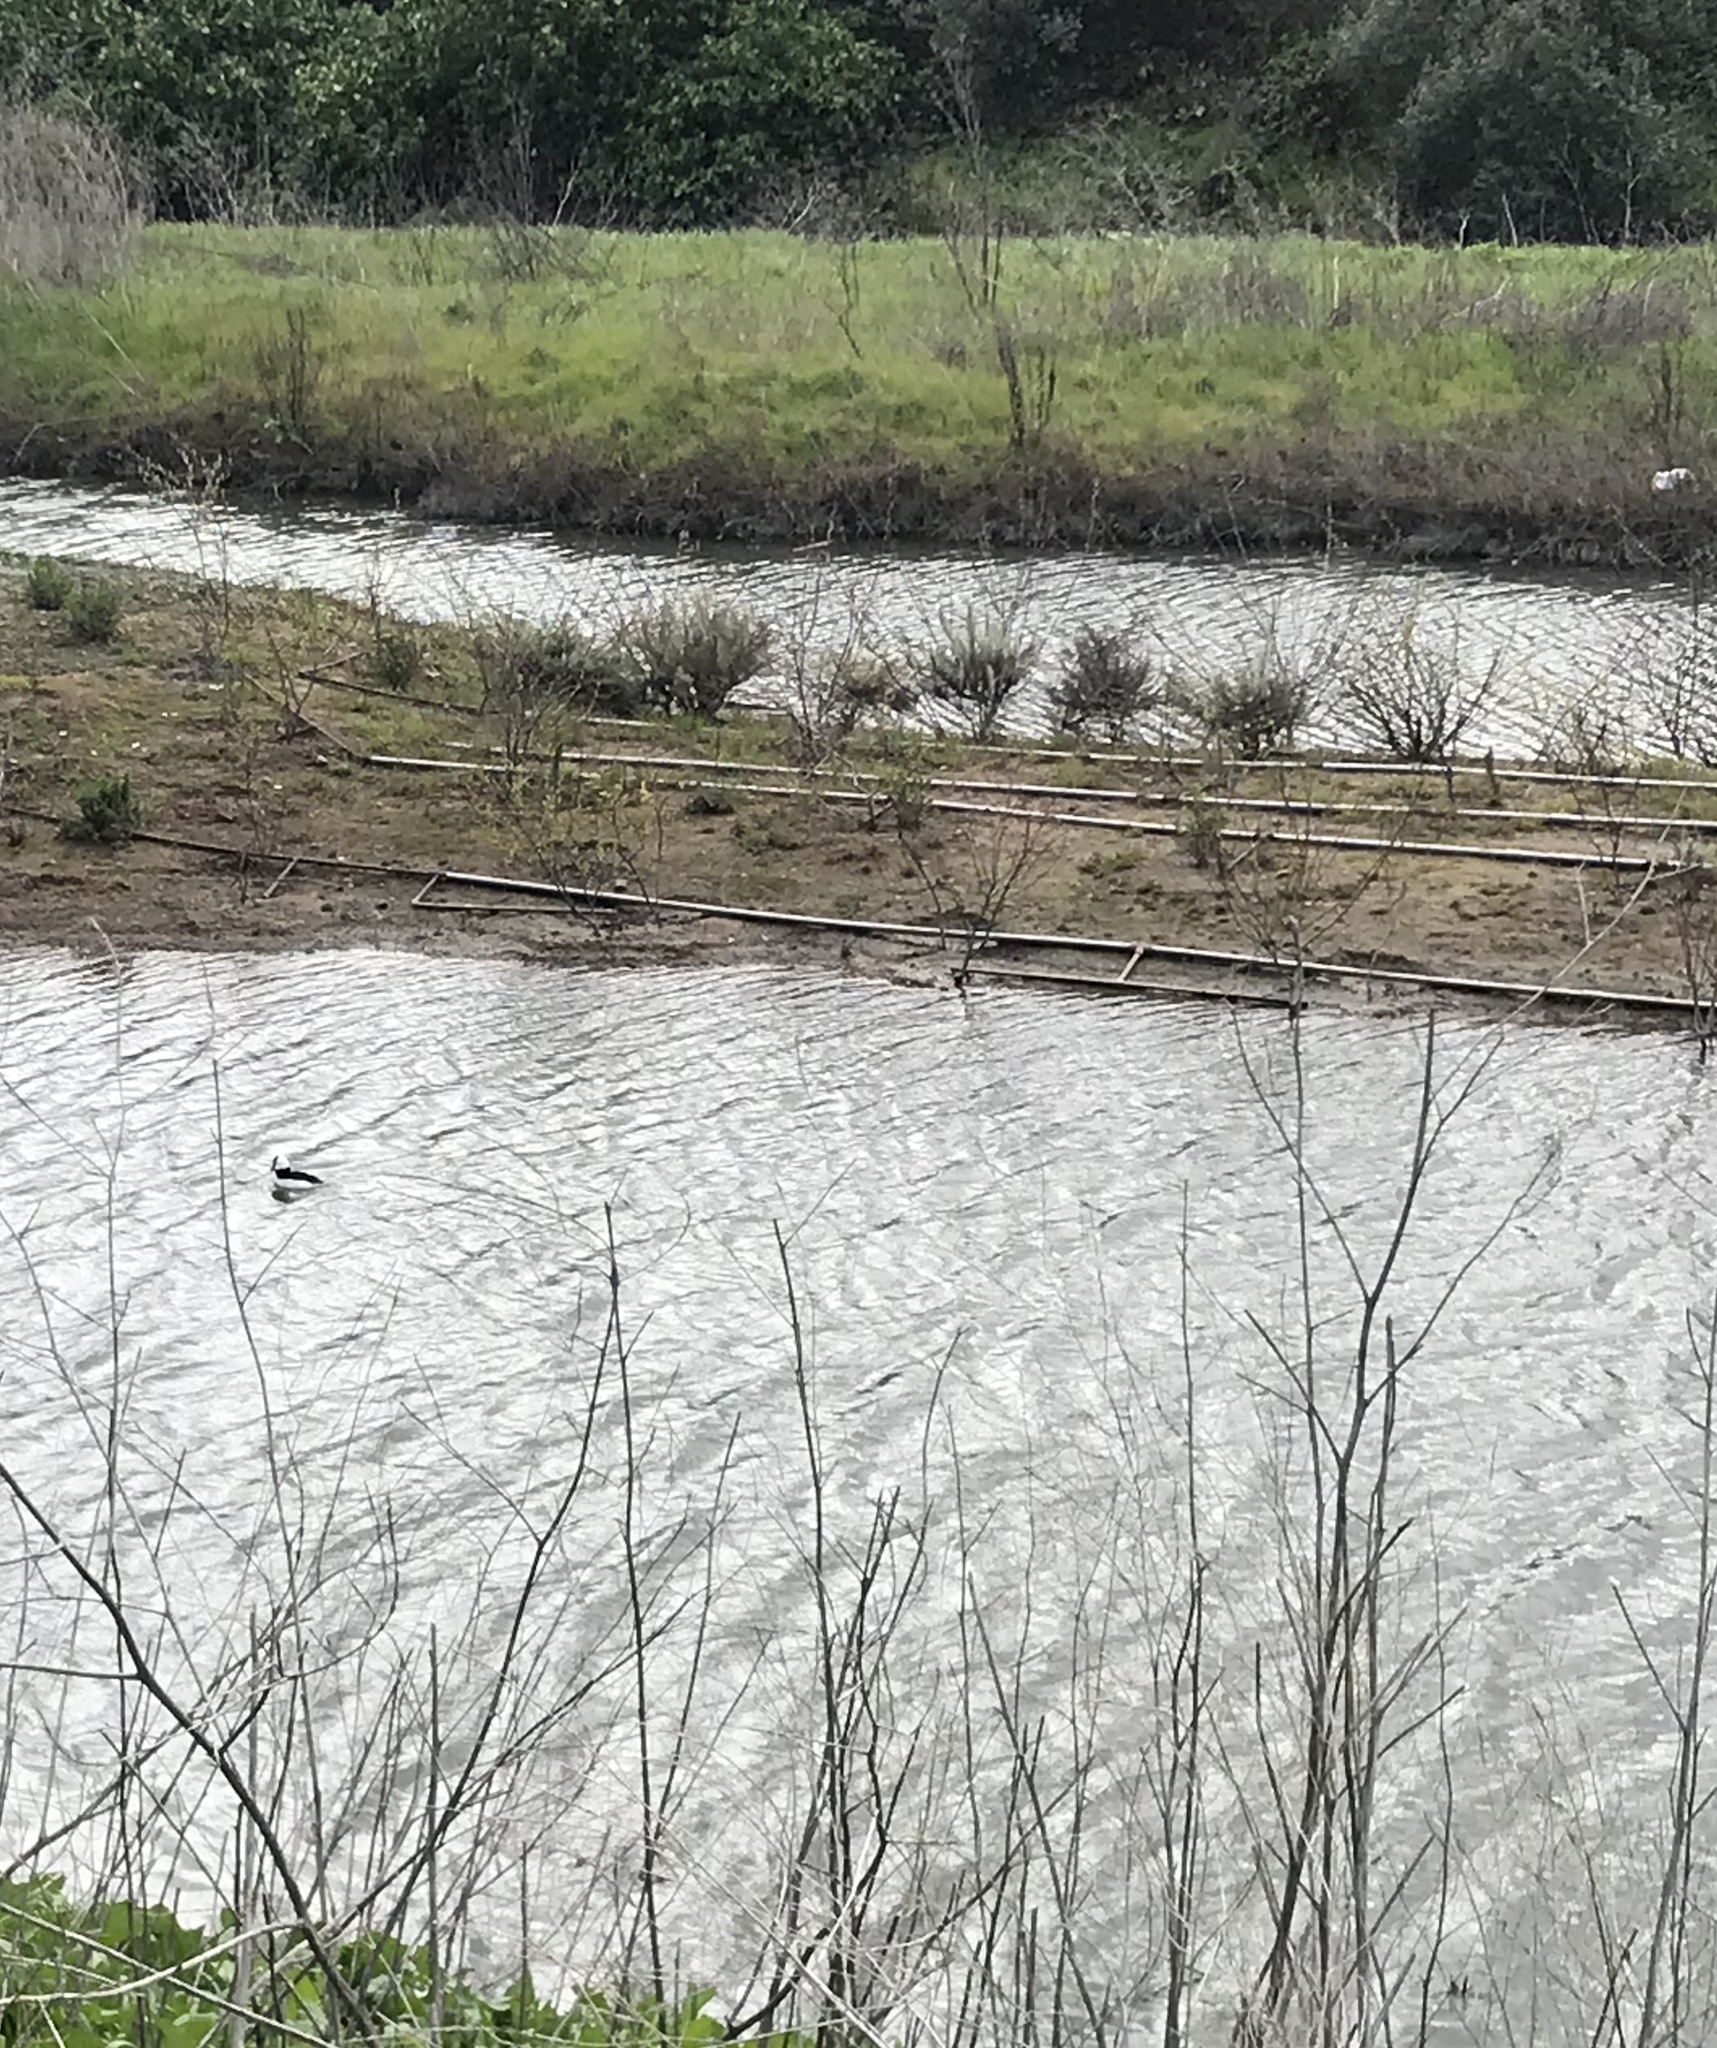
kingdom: Animalia
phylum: Chordata
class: Aves
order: Anseriformes
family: Anatidae
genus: Bucephala
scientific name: Bucephala albeola
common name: Bufflehead
